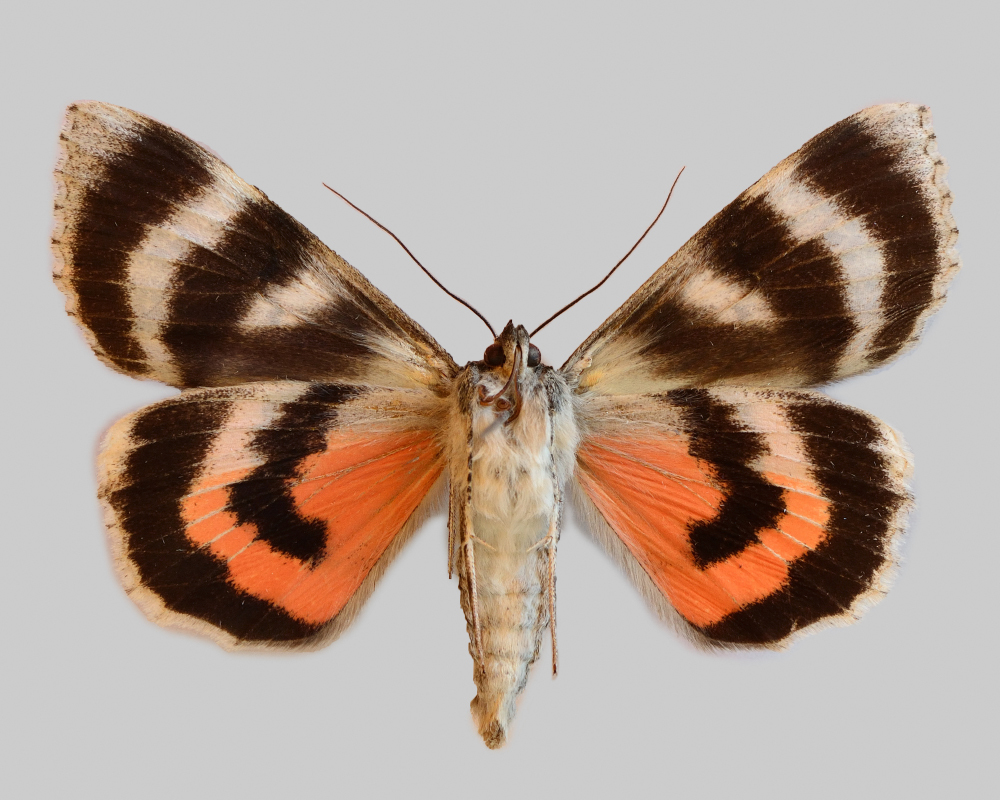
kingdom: Animalia
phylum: Arthropoda
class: Insecta
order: Lepidoptera
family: Erebidae
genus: Catocala
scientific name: Catocala adultera
